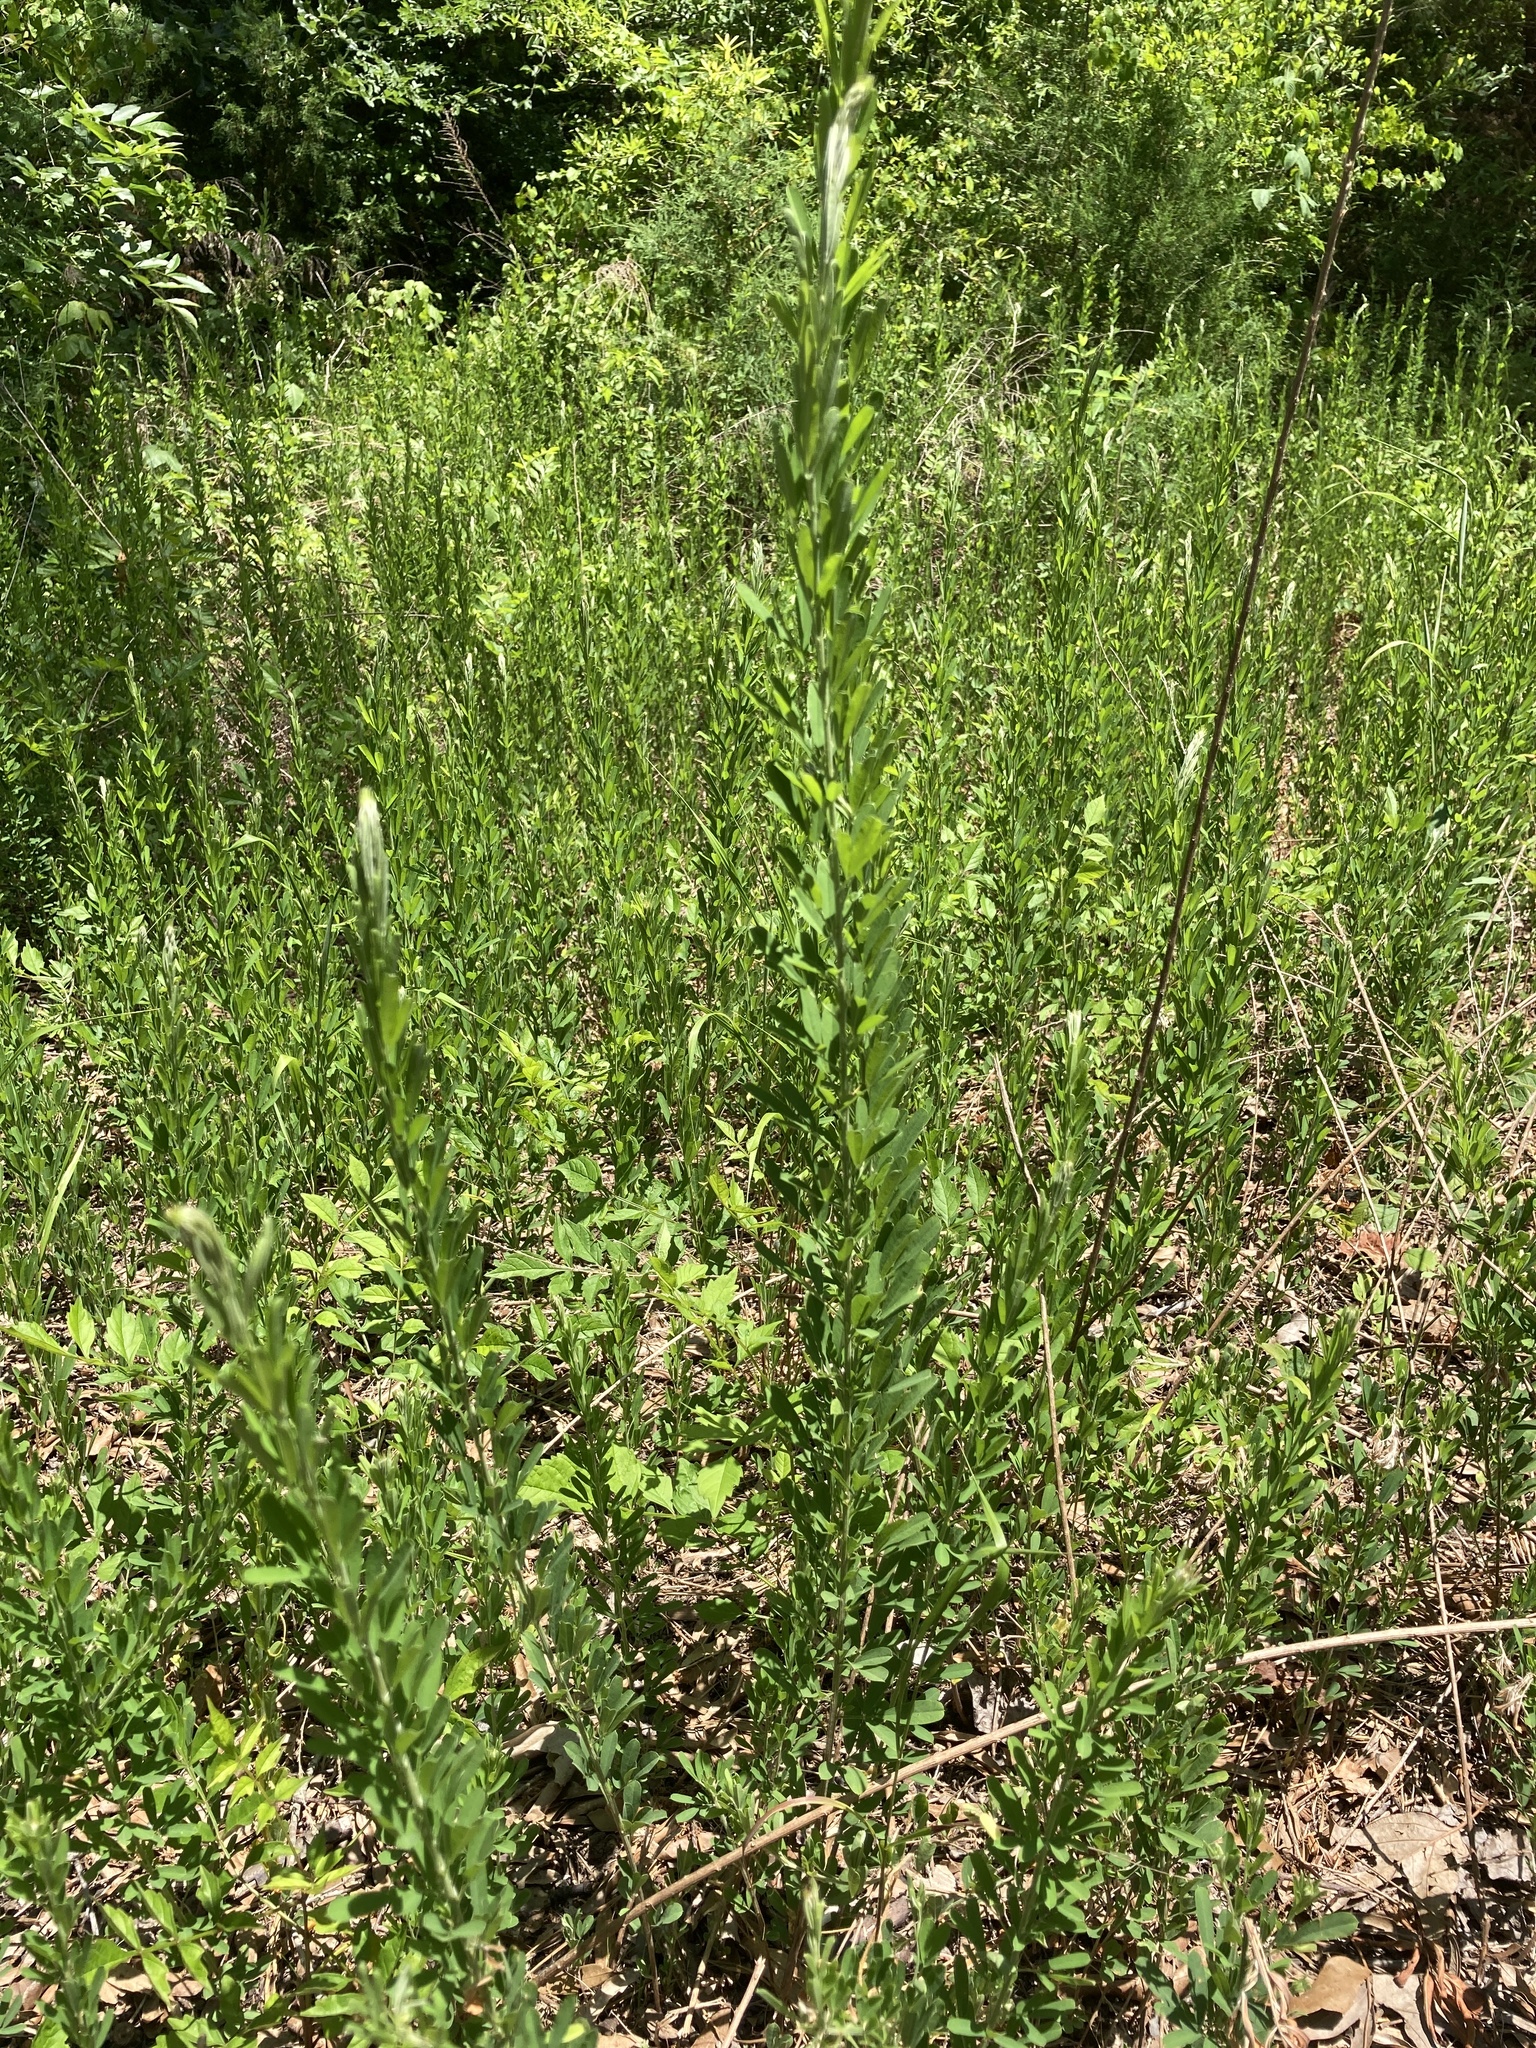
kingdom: Plantae
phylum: Tracheophyta
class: Magnoliopsida
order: Fabales
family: Fabaceae
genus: Lespedeza
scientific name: Lespedeza cuneata
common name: Chinese bush-clover
